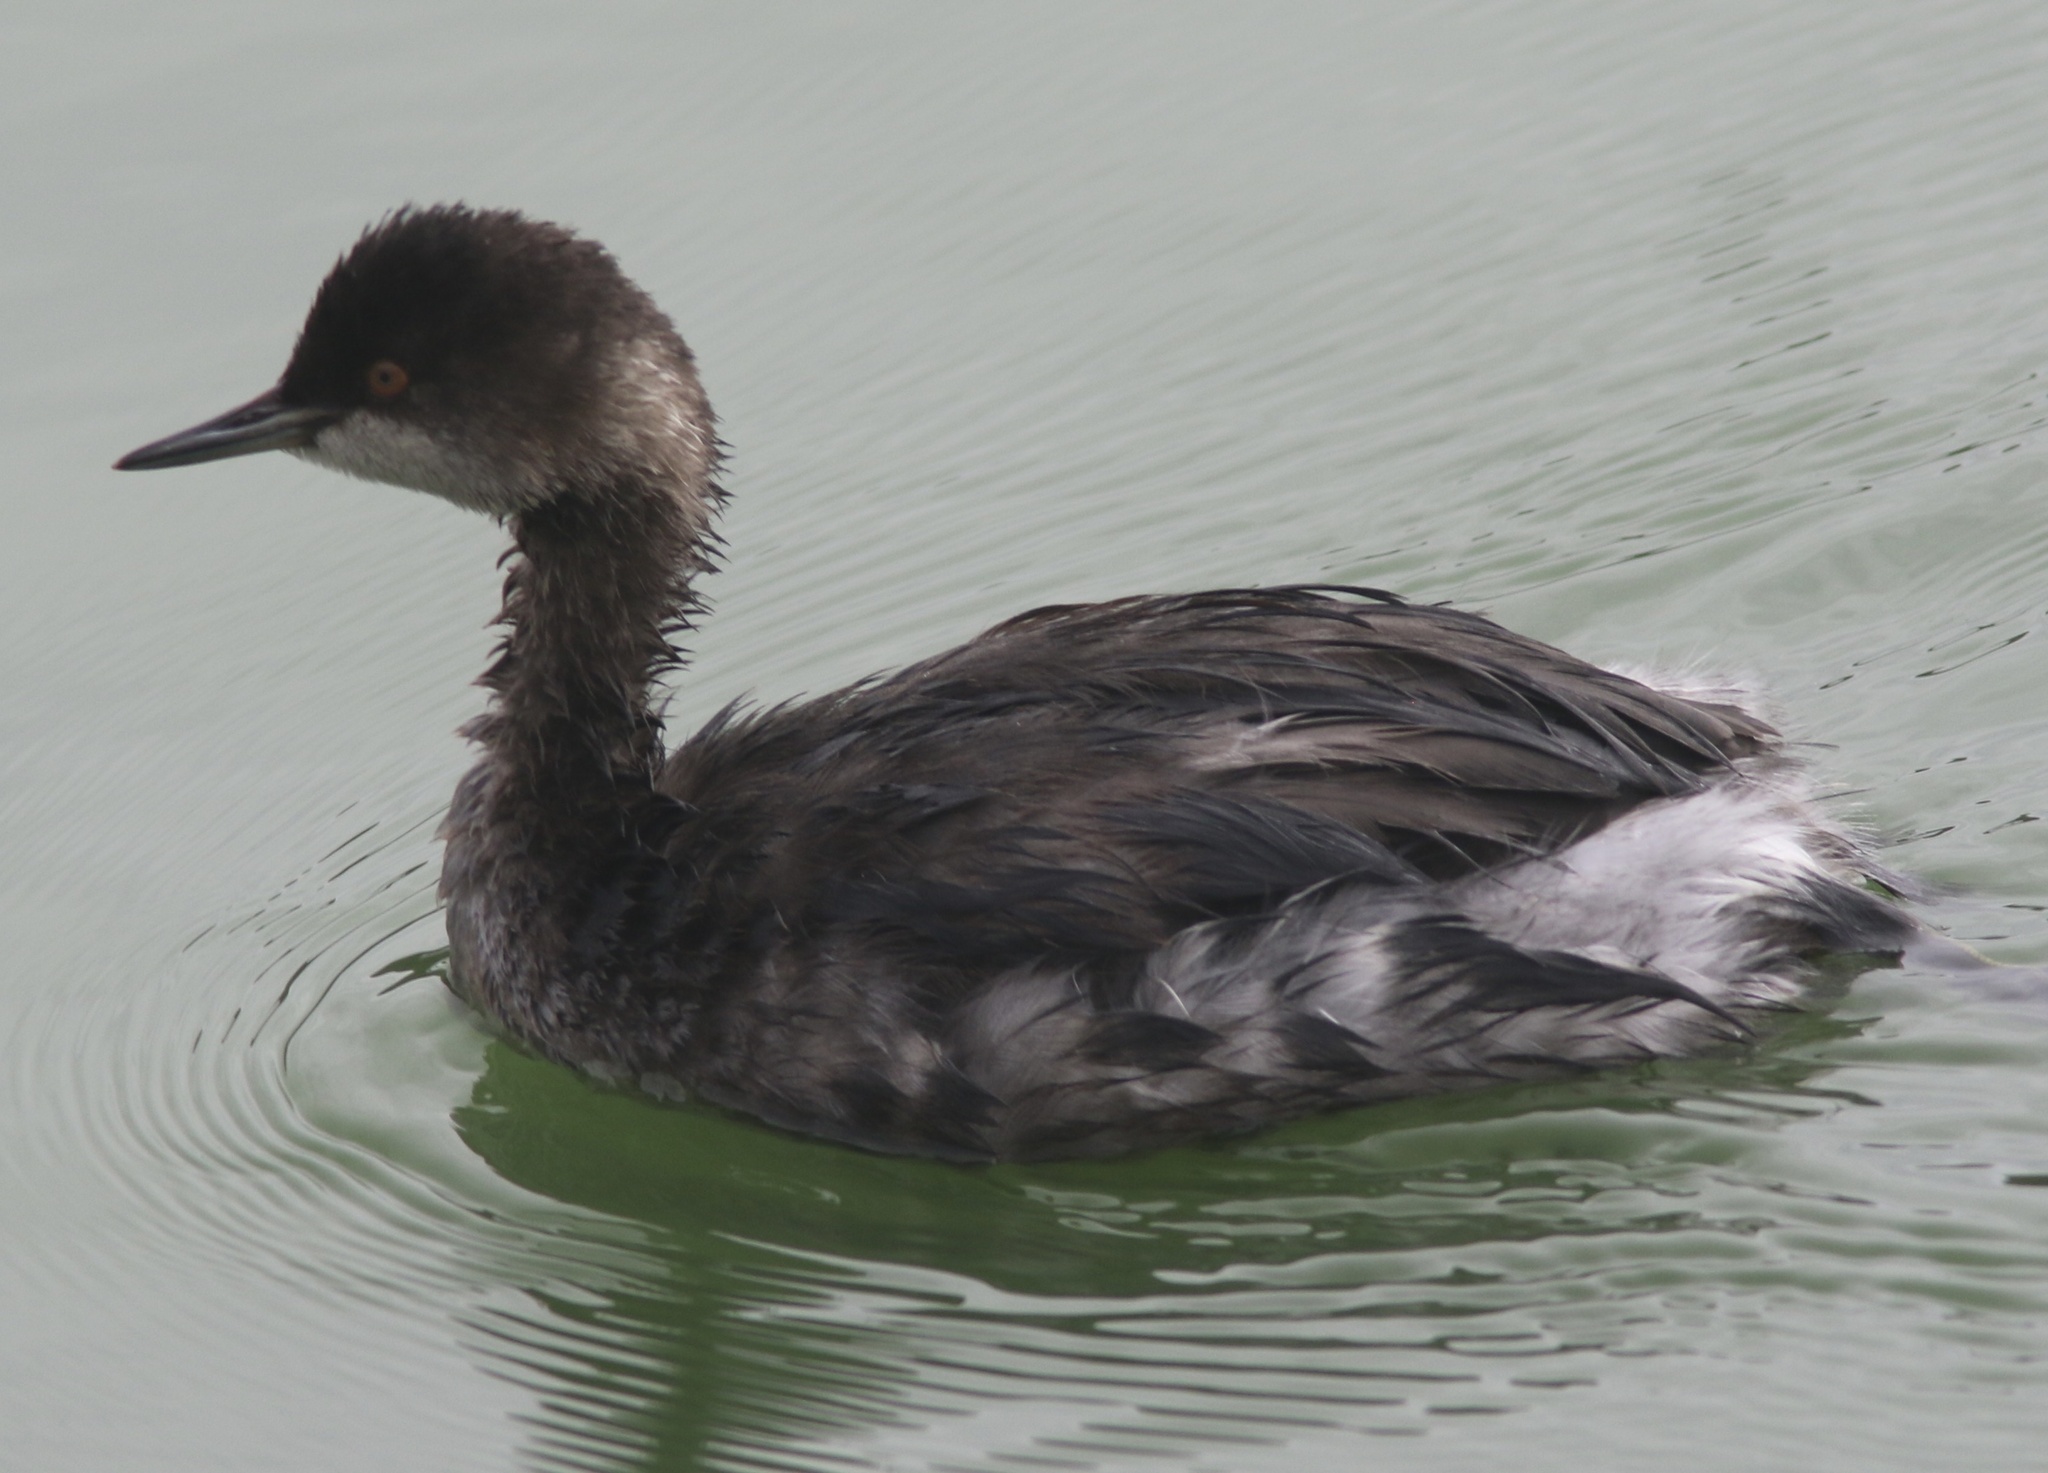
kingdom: Animalia
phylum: Chordata
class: Aves
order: Podicipediformes
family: Podicipedidae
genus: Podiceps
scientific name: Podiceps nigricollis
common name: Black-necked grebe
